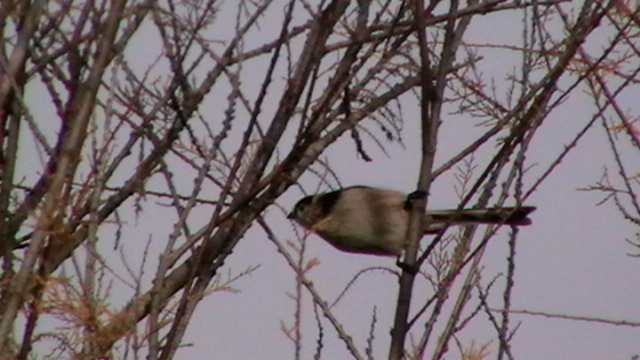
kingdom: Animalia
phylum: Chordata
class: Aves
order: Passeriformes
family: Aegithalidae
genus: Aegithalos
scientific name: Aegithalos caudatus
